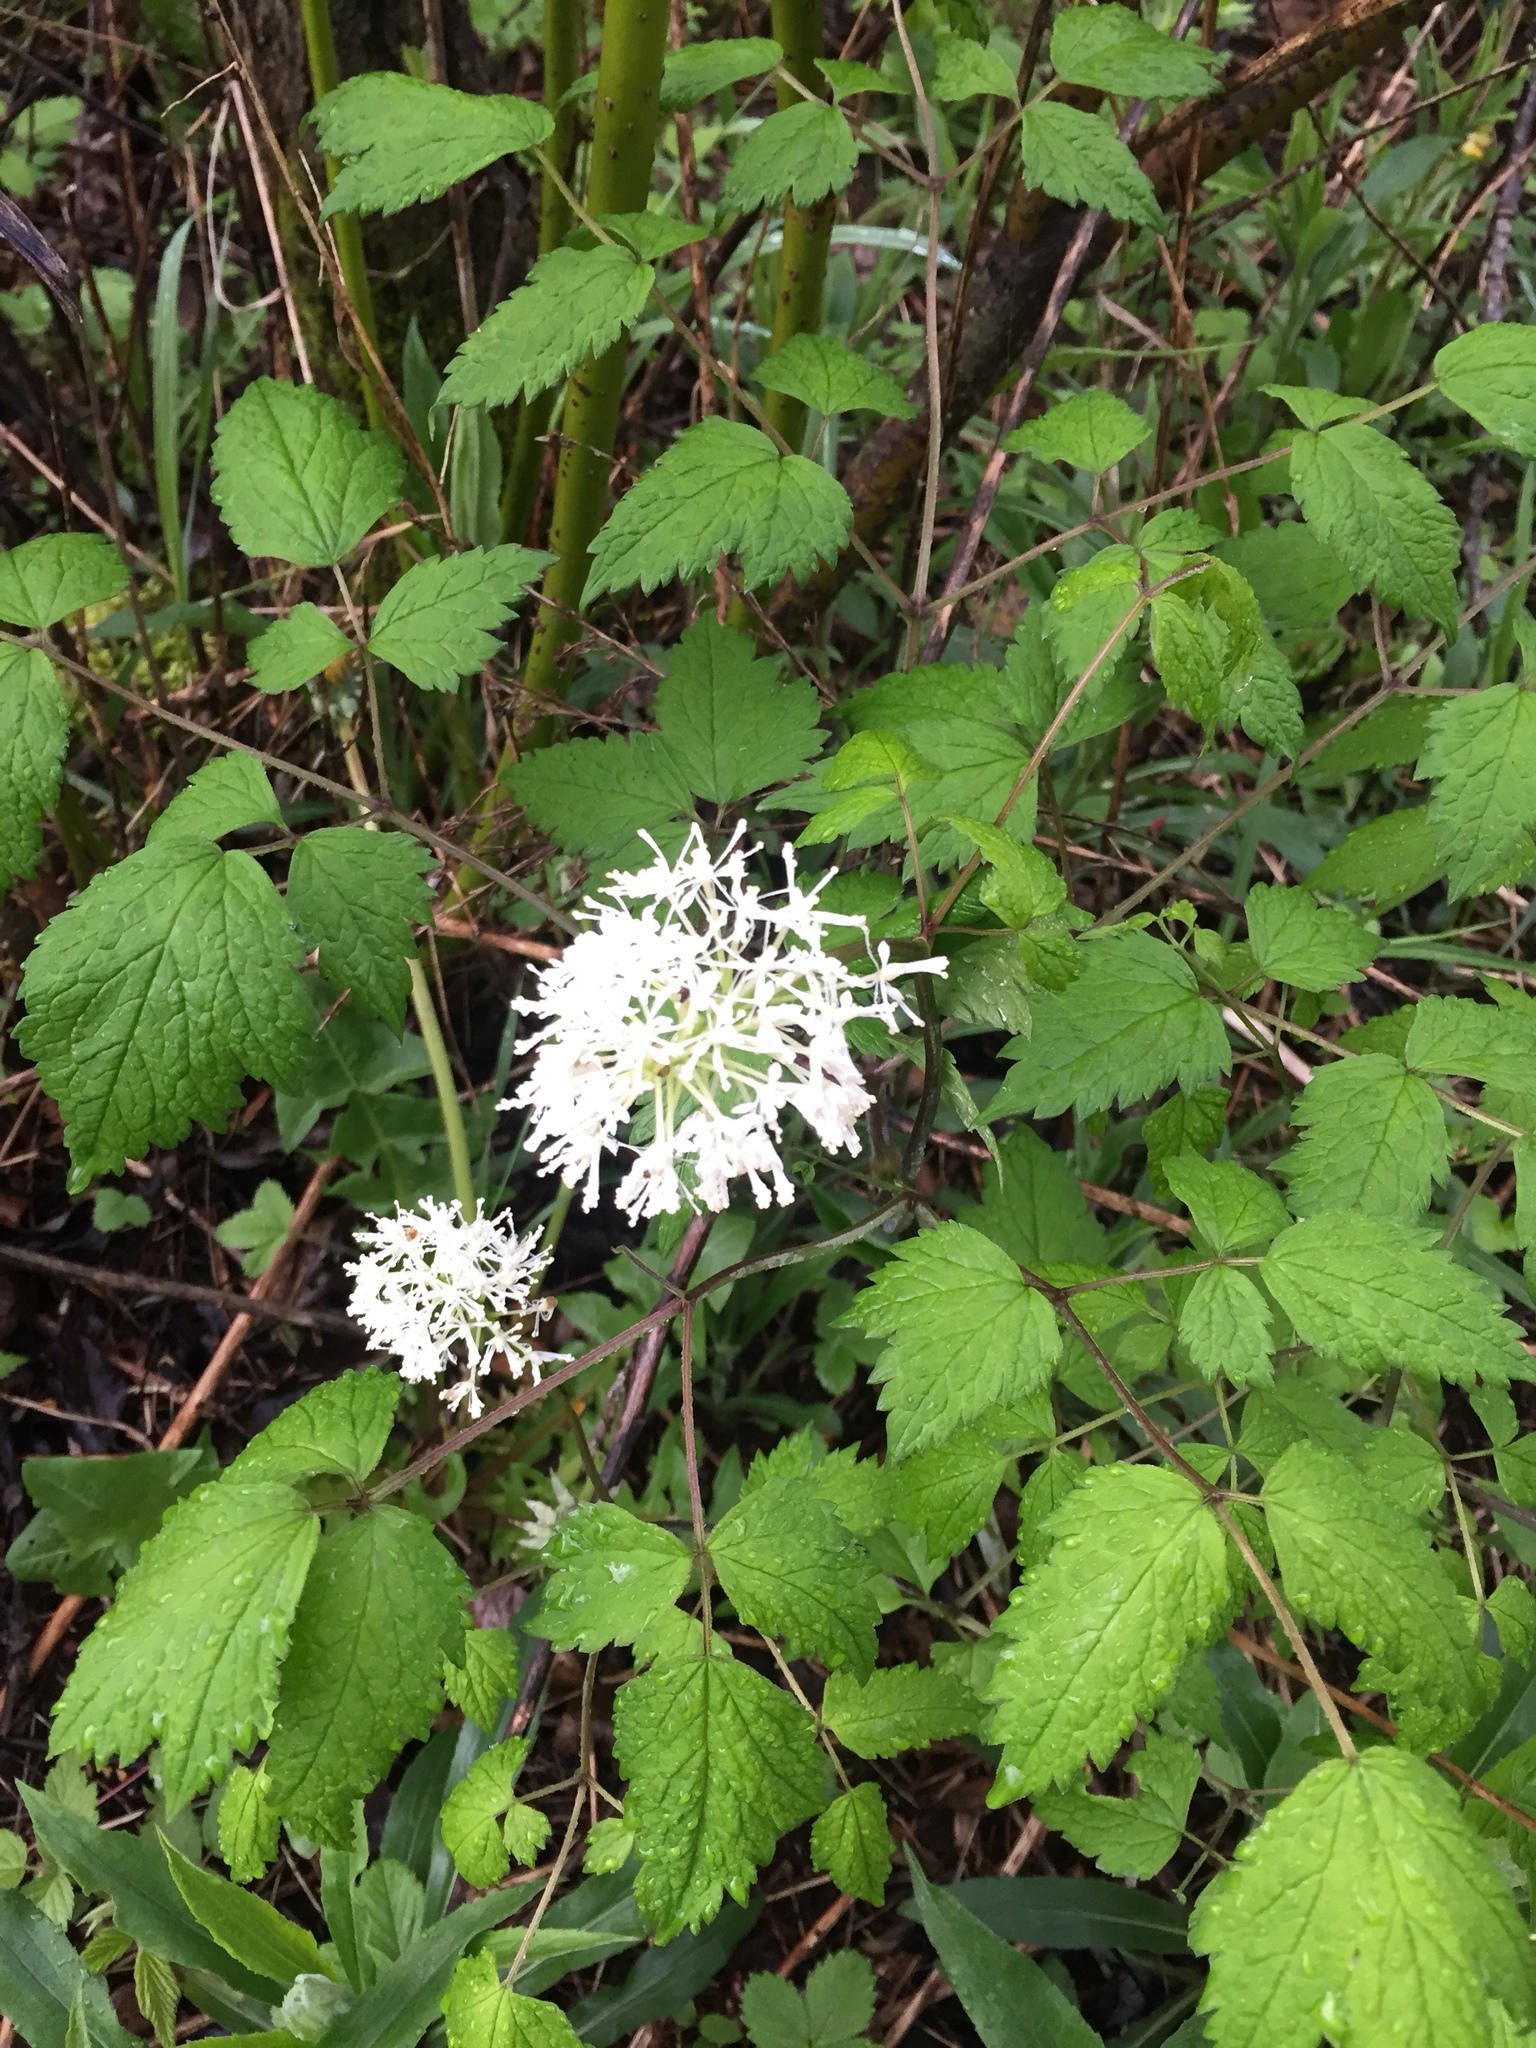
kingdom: Plantae
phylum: Tracheophyta
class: Magnoliopsida
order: Ranunculales
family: Ranunculaceae
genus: Actaea
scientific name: Actaea rubra
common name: Red baneberry
